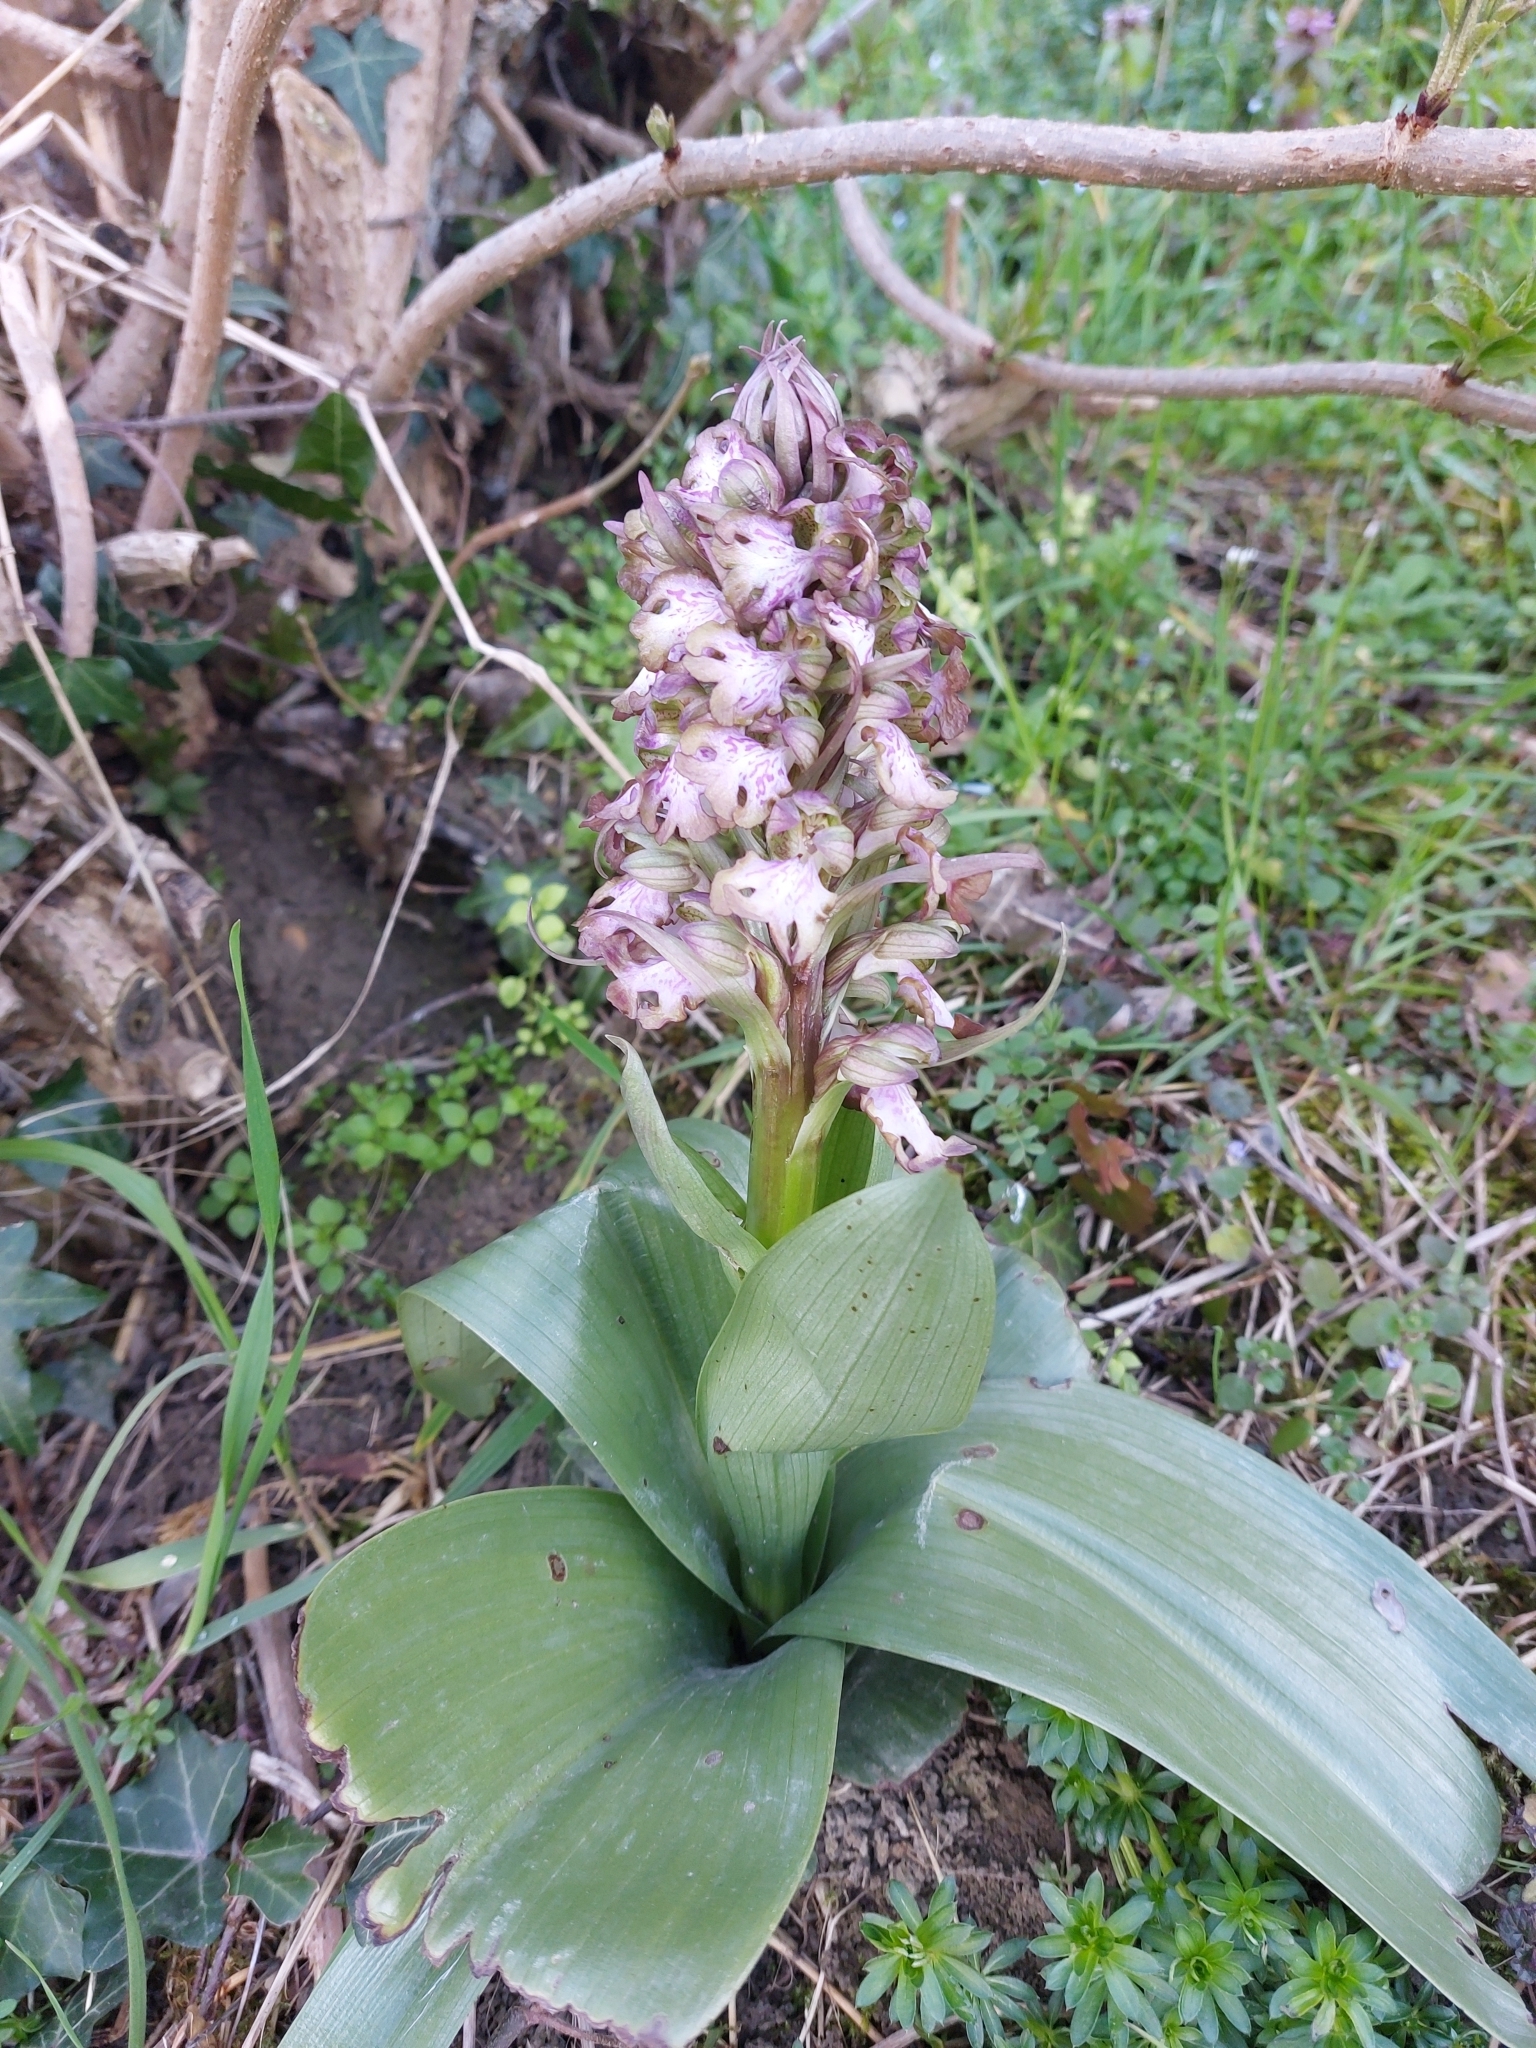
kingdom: Plantae
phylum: Tracheophyta
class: Liliopsida
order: Asparagales
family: Orchidaceae
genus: Himantoglossum
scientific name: Himantoglossum robertianum
